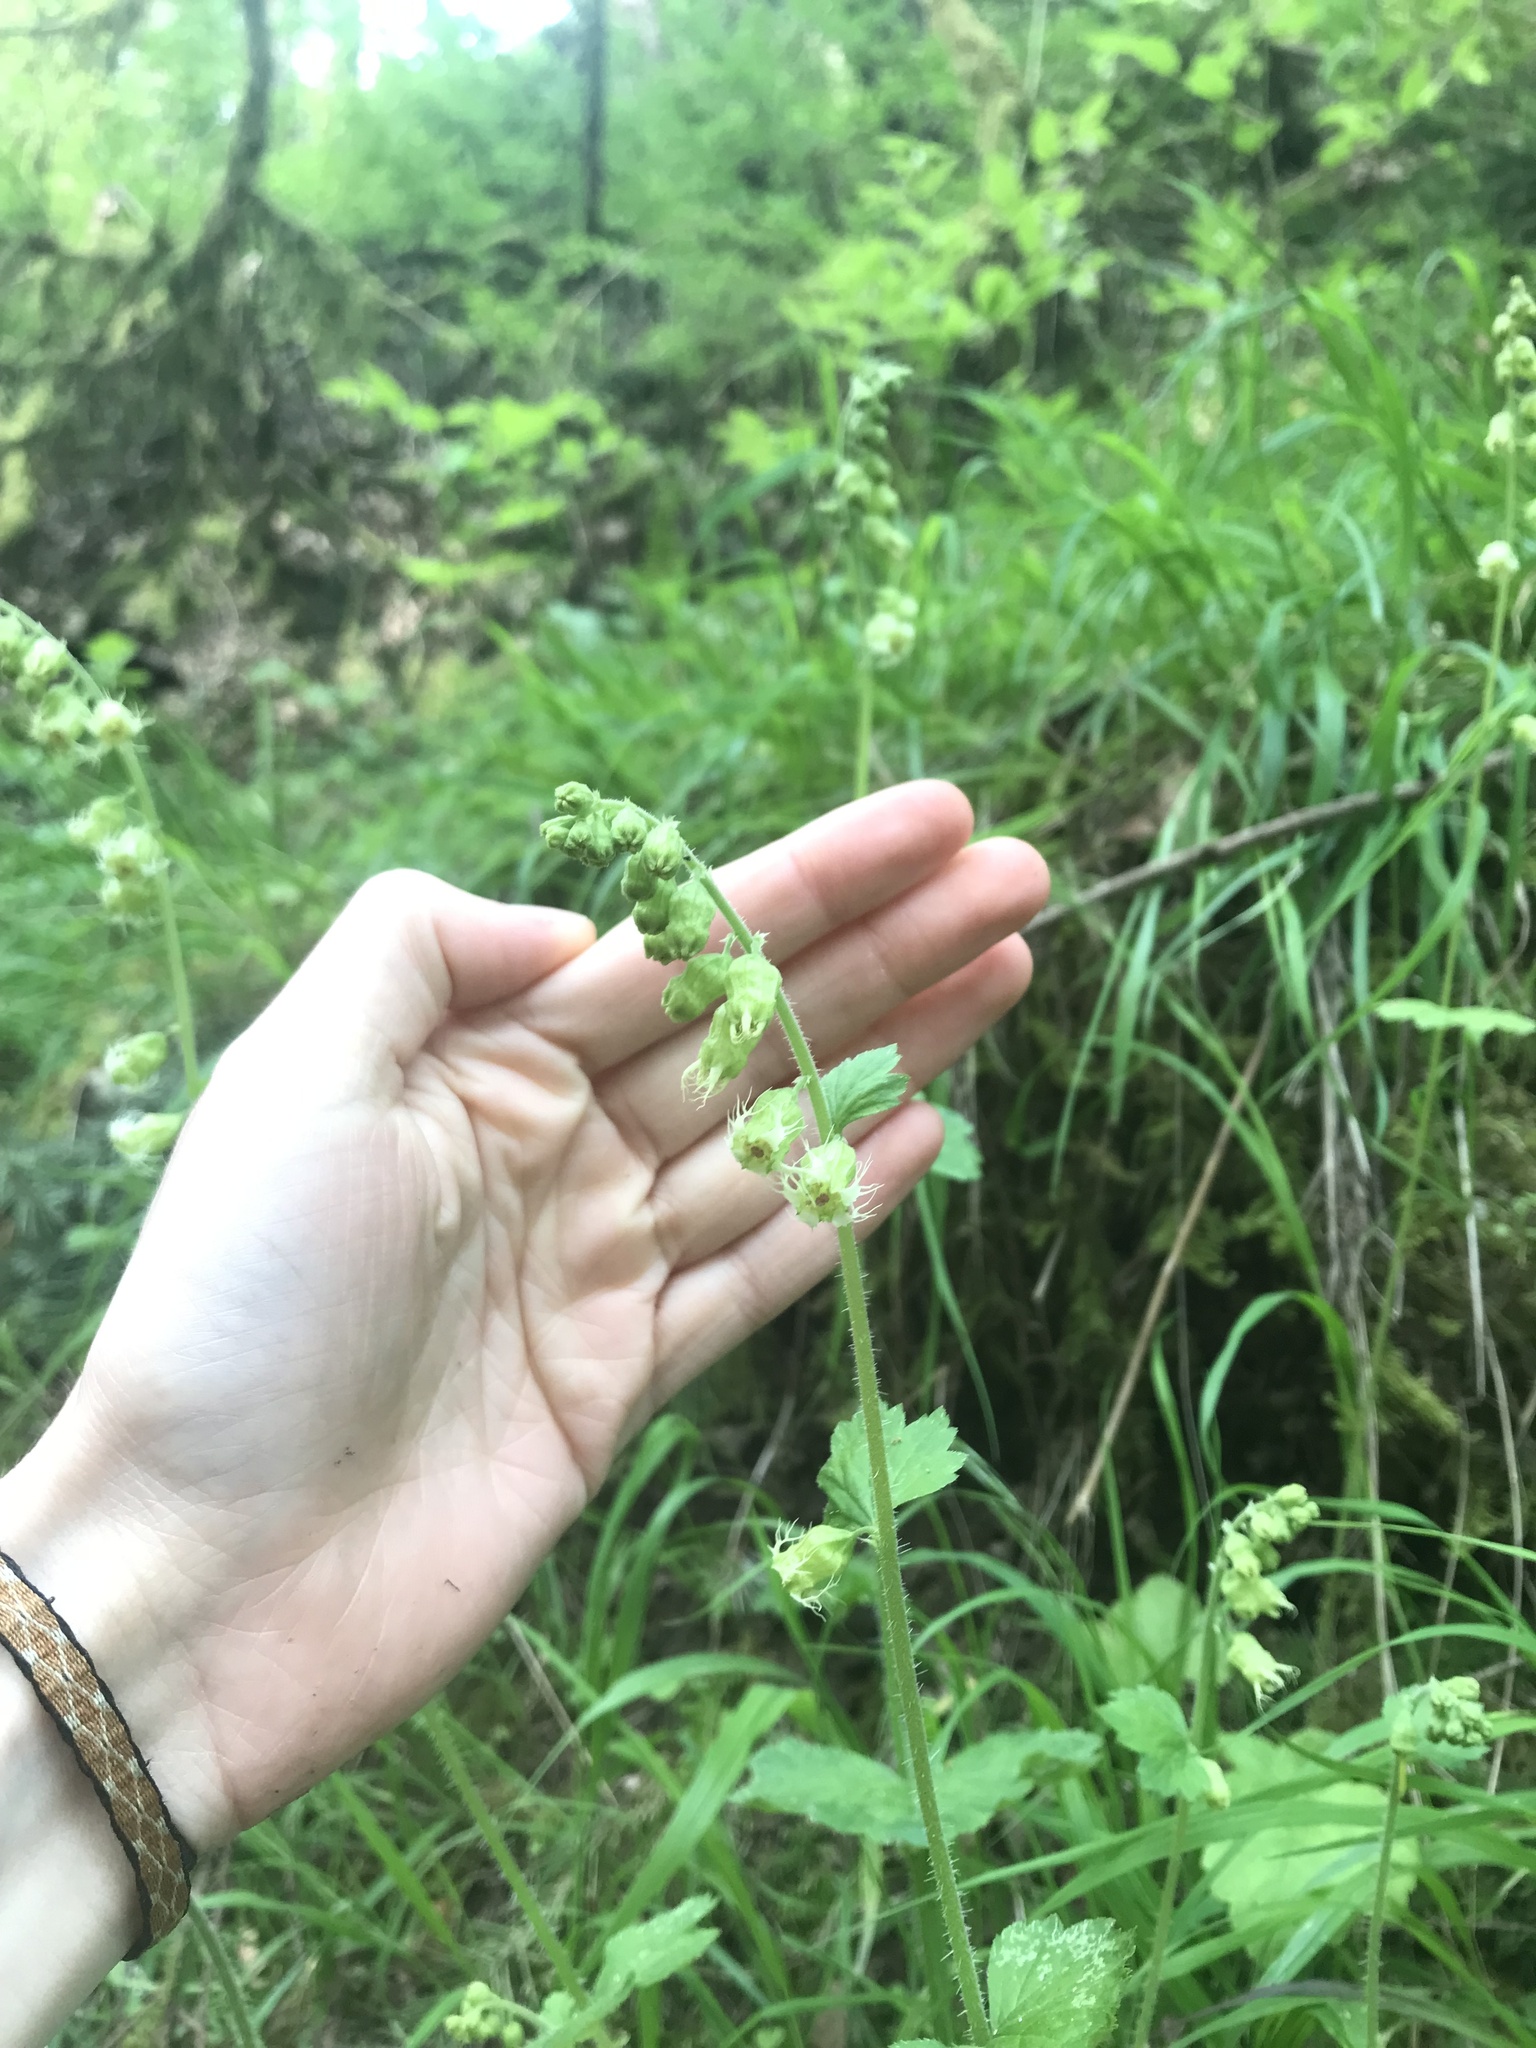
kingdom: Plantae
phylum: Tracheophyta
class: Magnoliopsida
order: Saxifragales
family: Saxifragaceae
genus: Tellima
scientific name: Tellima grandiflora
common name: Fringecups
